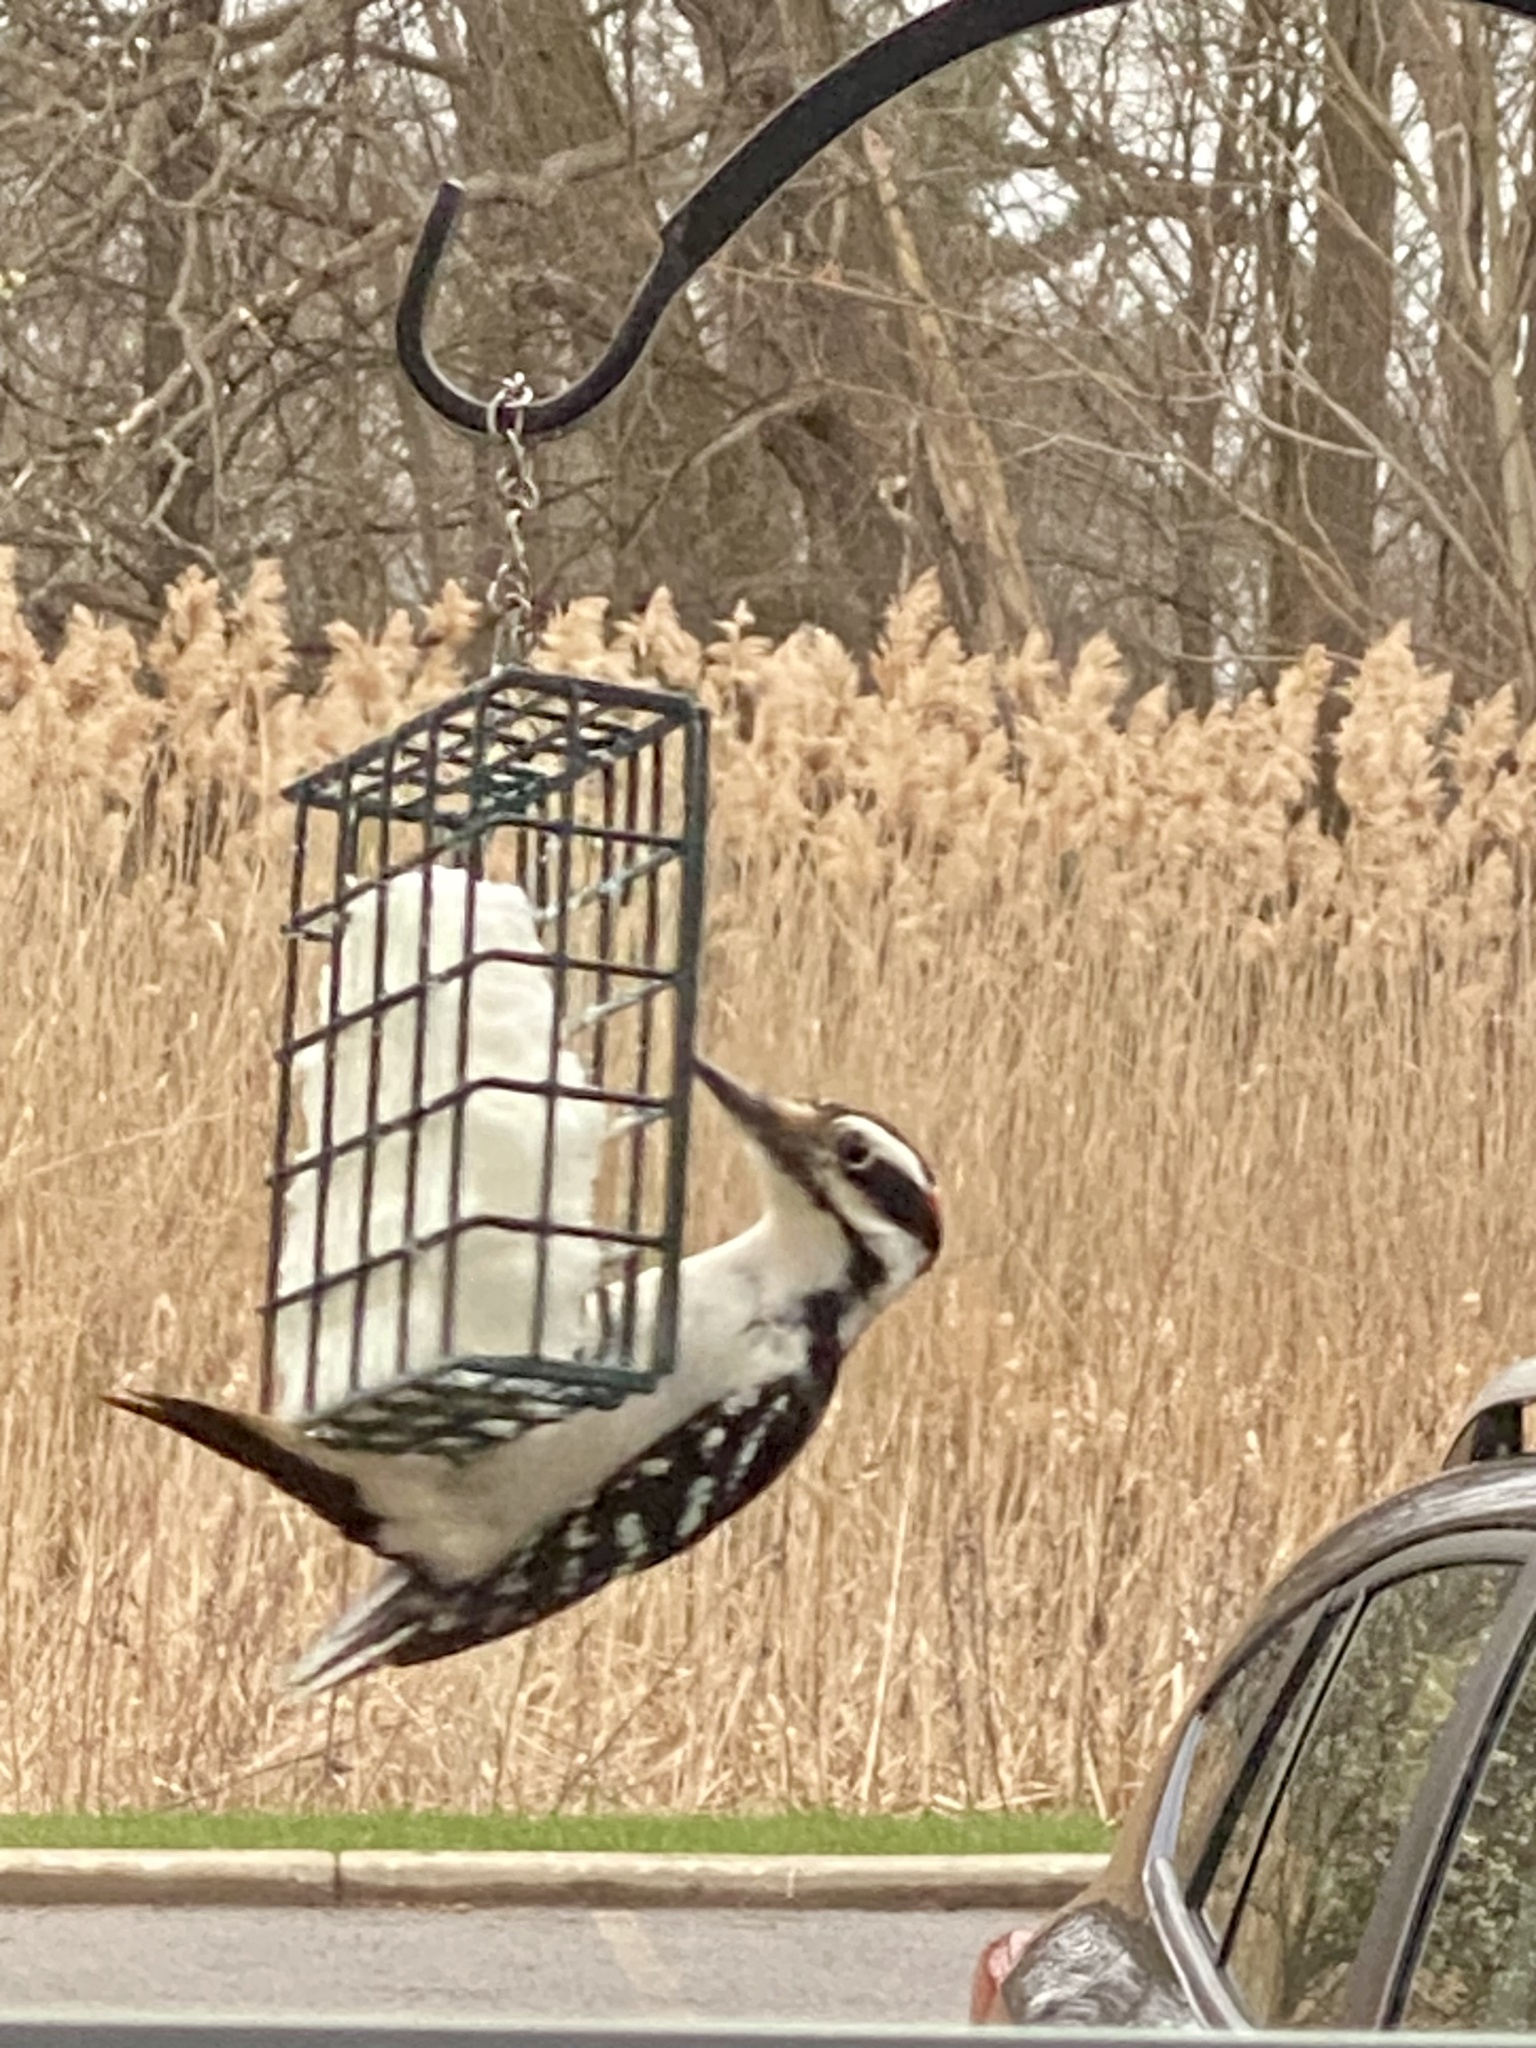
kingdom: Animalia
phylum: Chordata
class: Aves
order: Piciformes
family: Picidae
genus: Leuconotopicus
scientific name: Leuconotopicus villosus
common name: Hairy woodpecker
